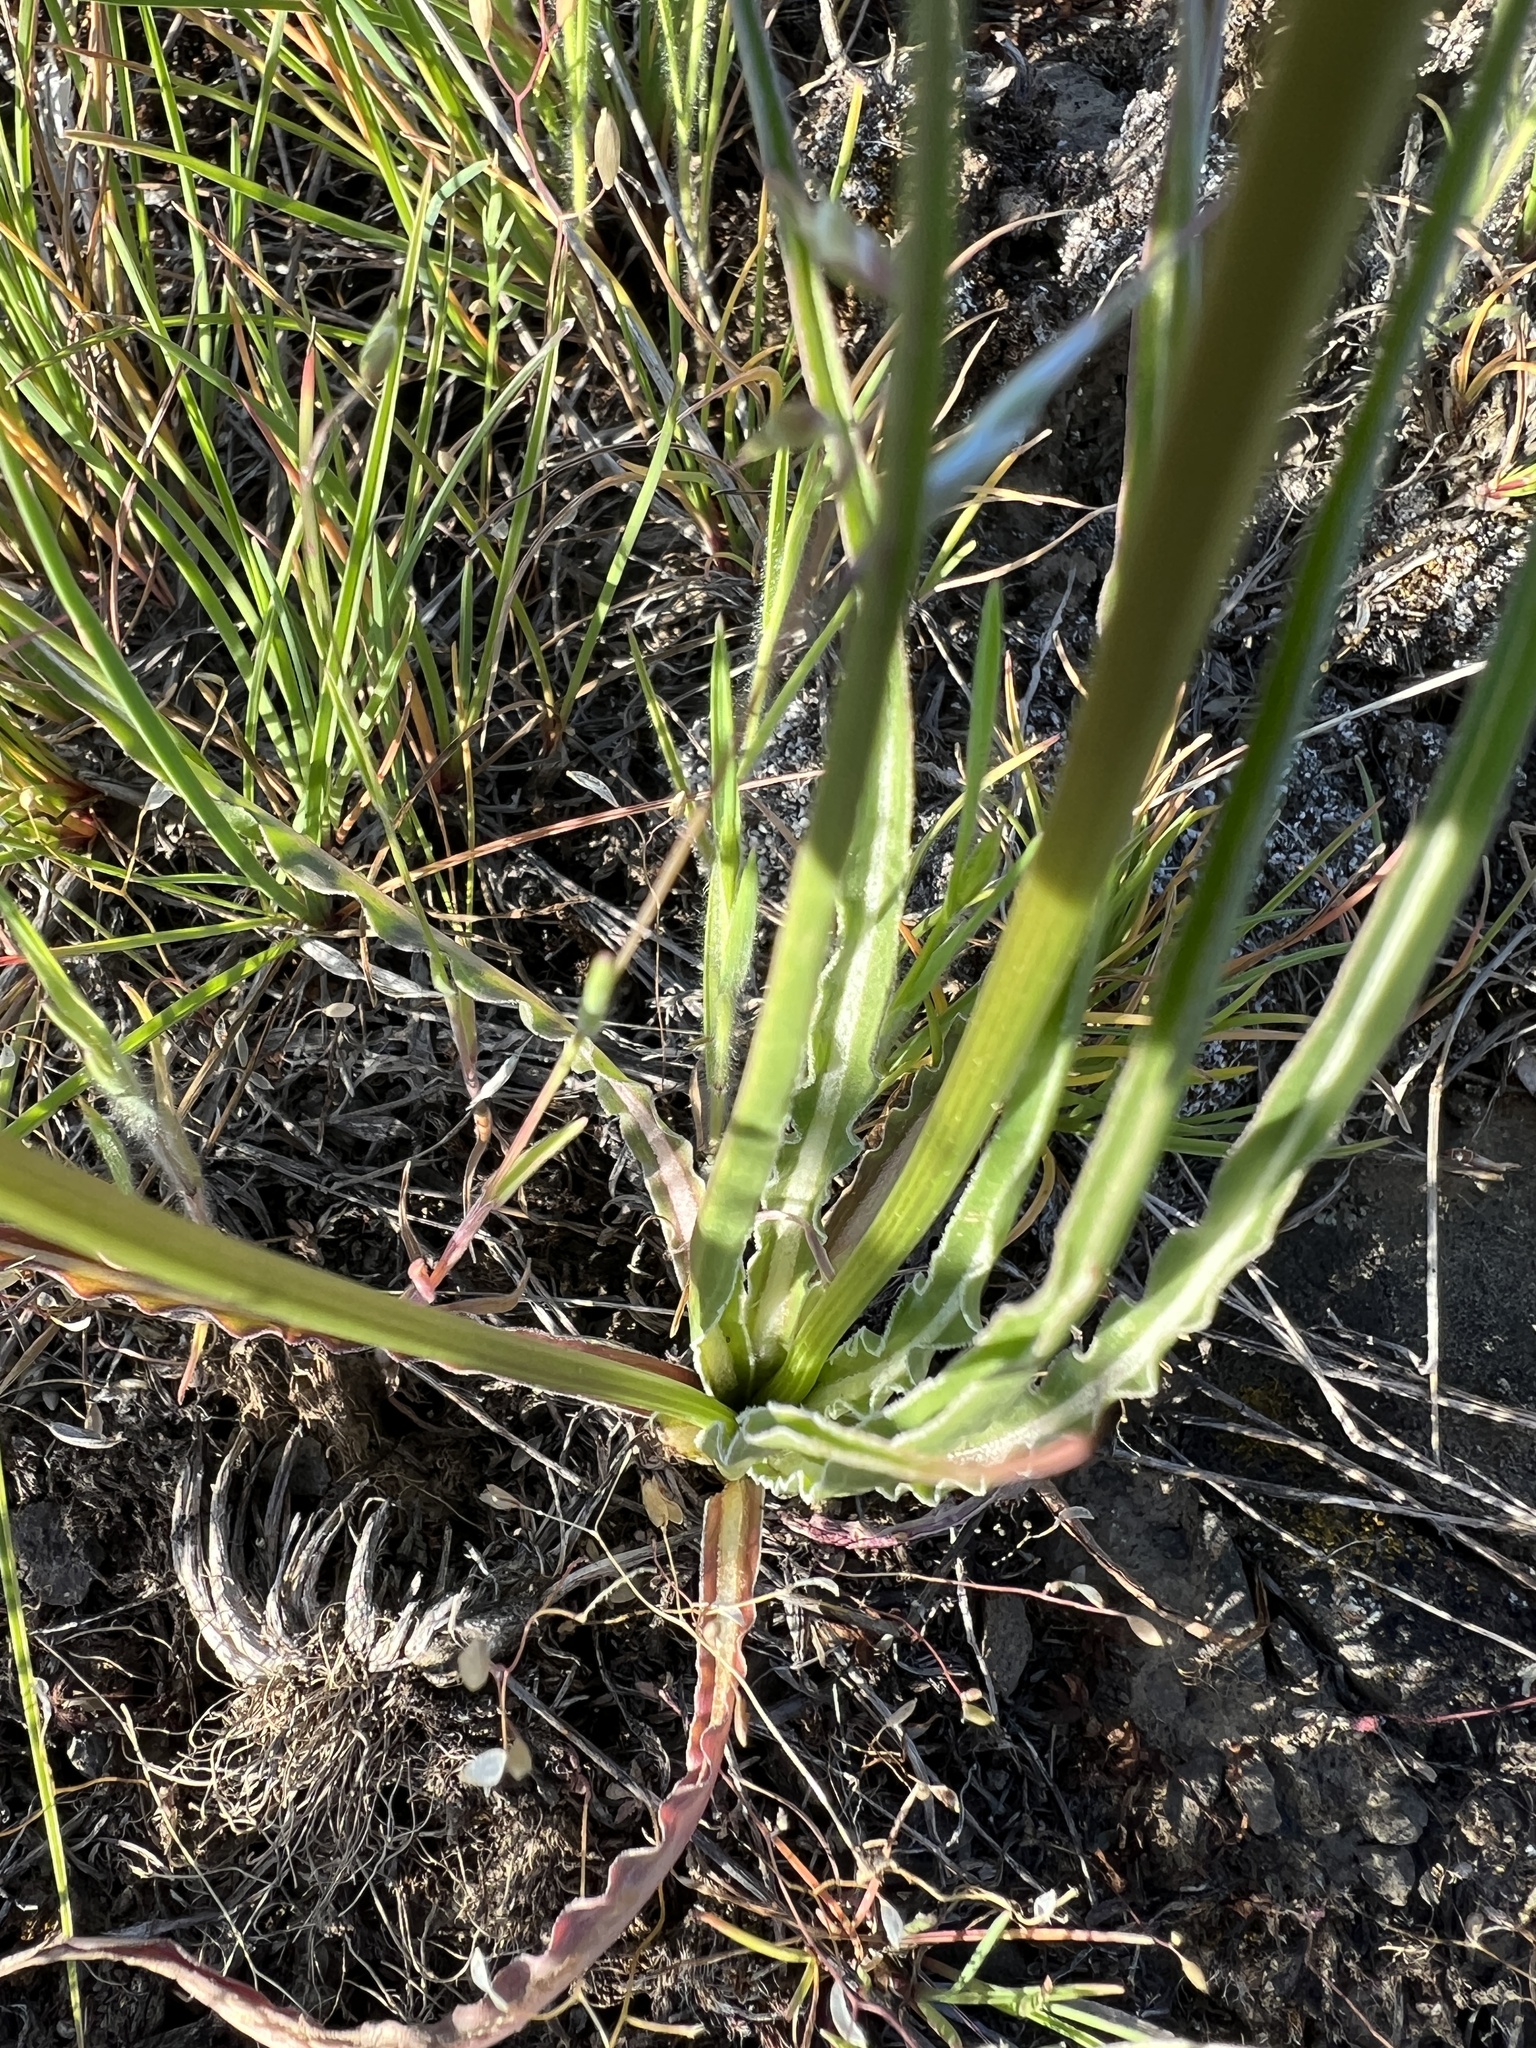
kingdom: Plantae
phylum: Tracheophyta
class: Magnoliopsida
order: Asterales
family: Asteraceae
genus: Microseris
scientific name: Microseris troximoides
